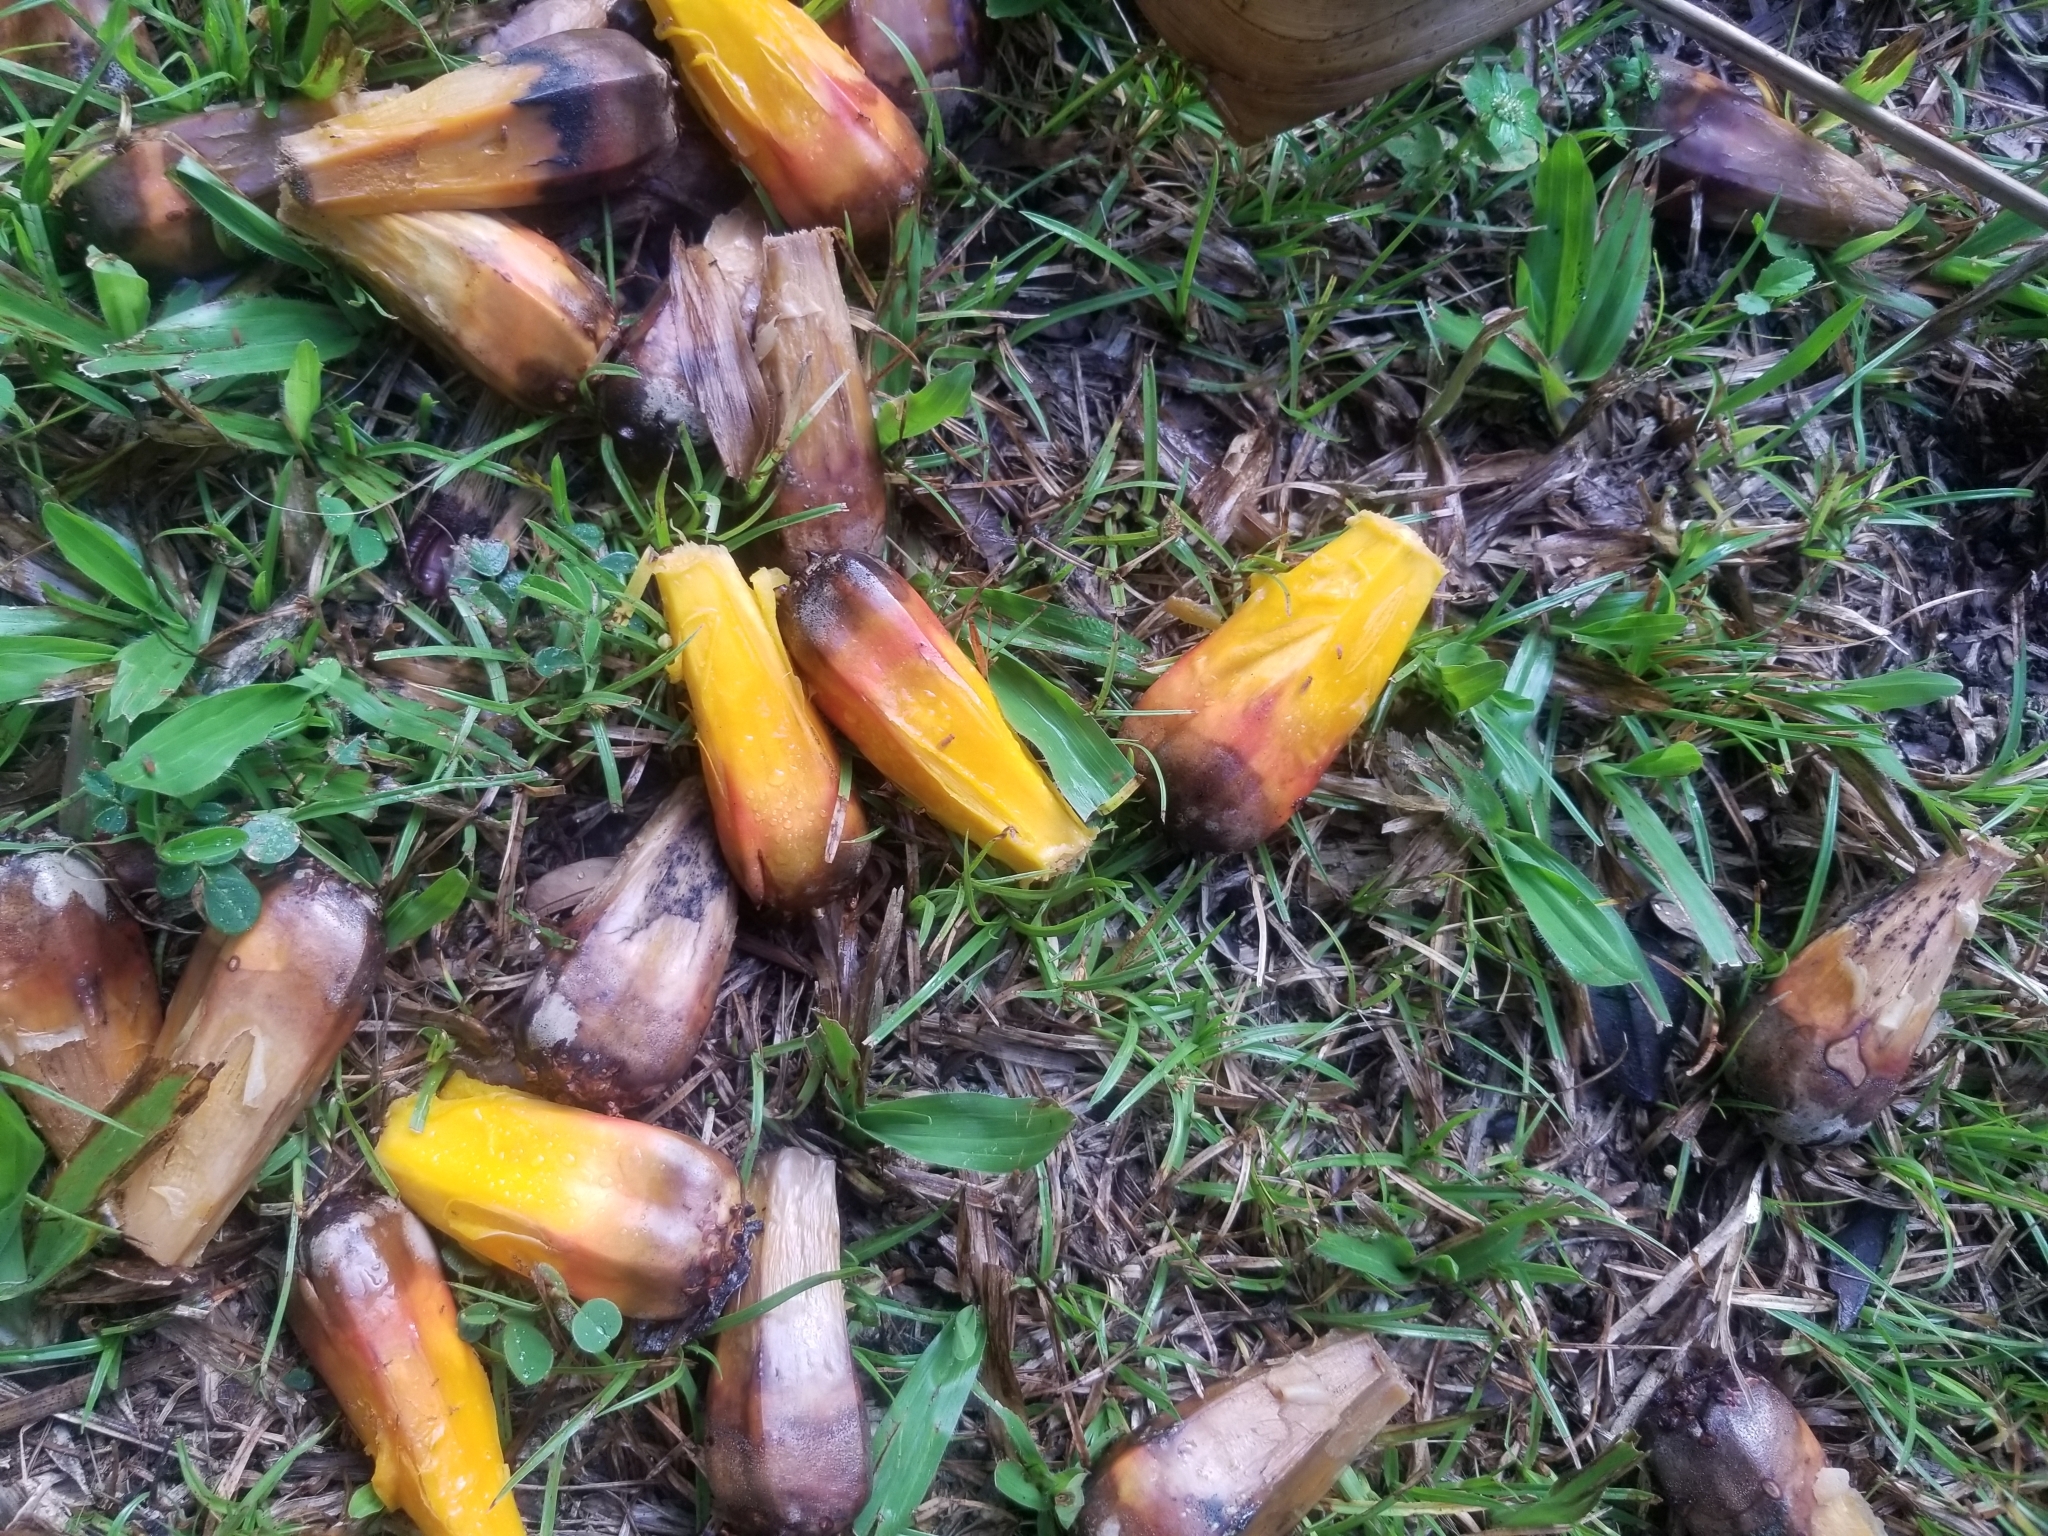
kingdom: Plantae
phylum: Tracheophyta
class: Liliopsida
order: Pandanales
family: Pandanaceae
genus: Pandanus
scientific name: Pandanus tectorius
